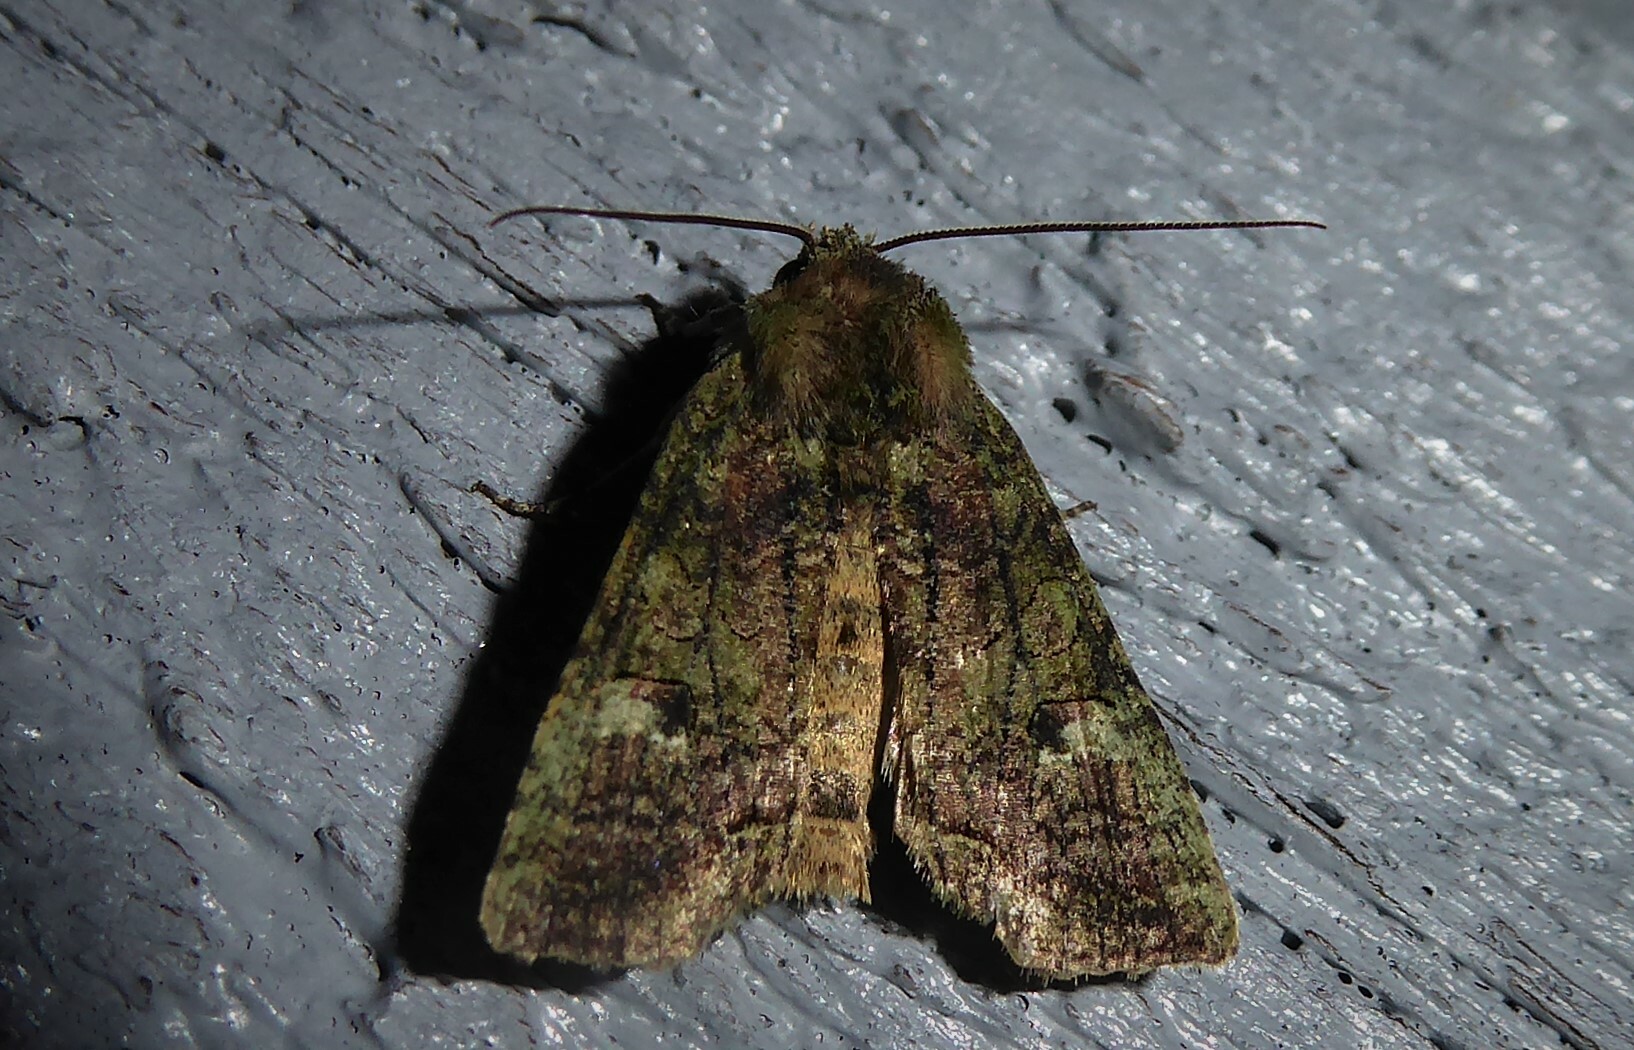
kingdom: Animalia
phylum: Arthropoda
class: Insecta
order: Lepidoptera
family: Noctuidae
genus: Meterana
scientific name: Meterana levis
